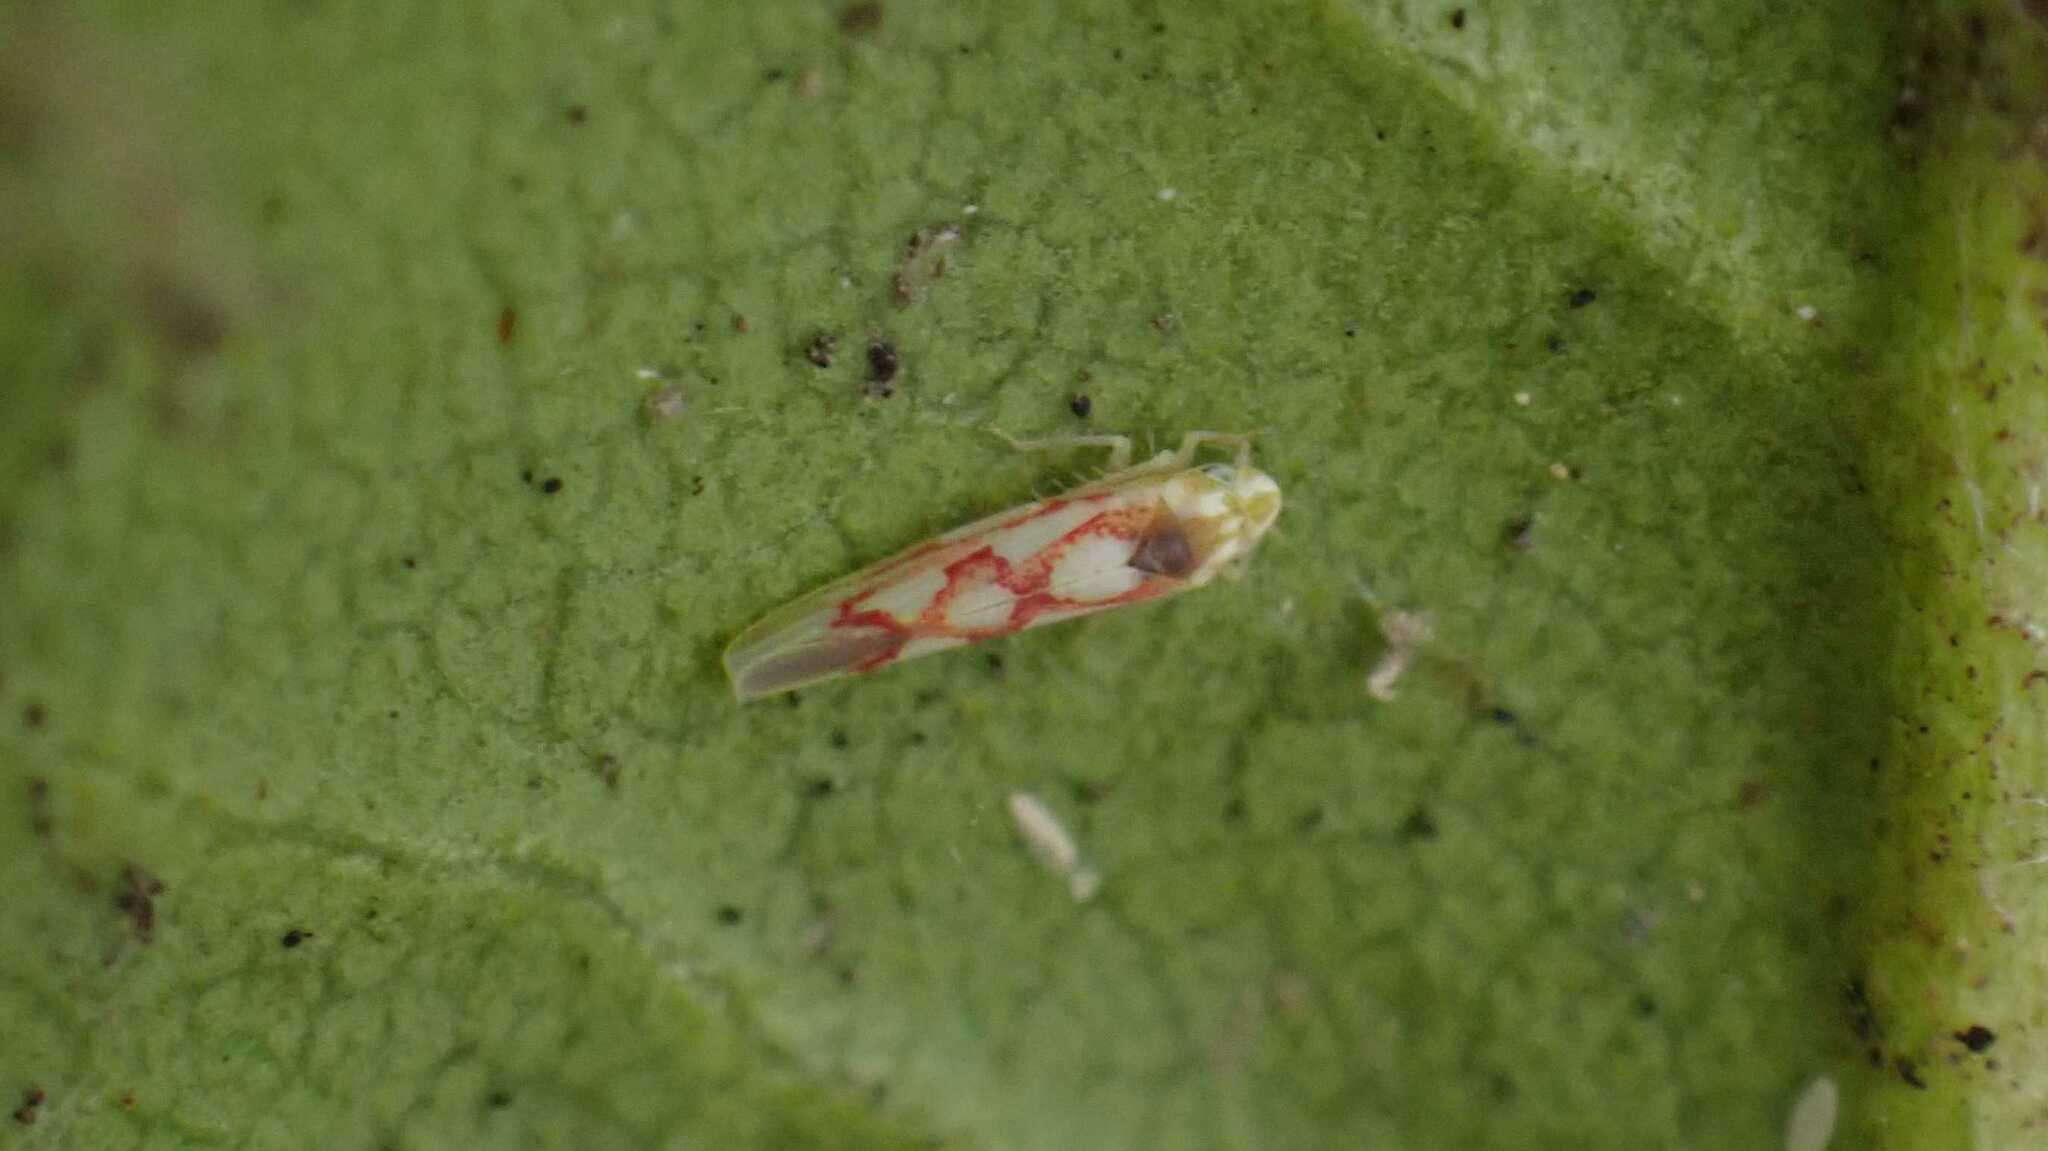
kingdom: Animalia
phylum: Arthropoda
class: Insecta
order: Hemiptera
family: Cicadellidae
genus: Zygina
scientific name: Zygina flammigera
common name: Leafhopper
